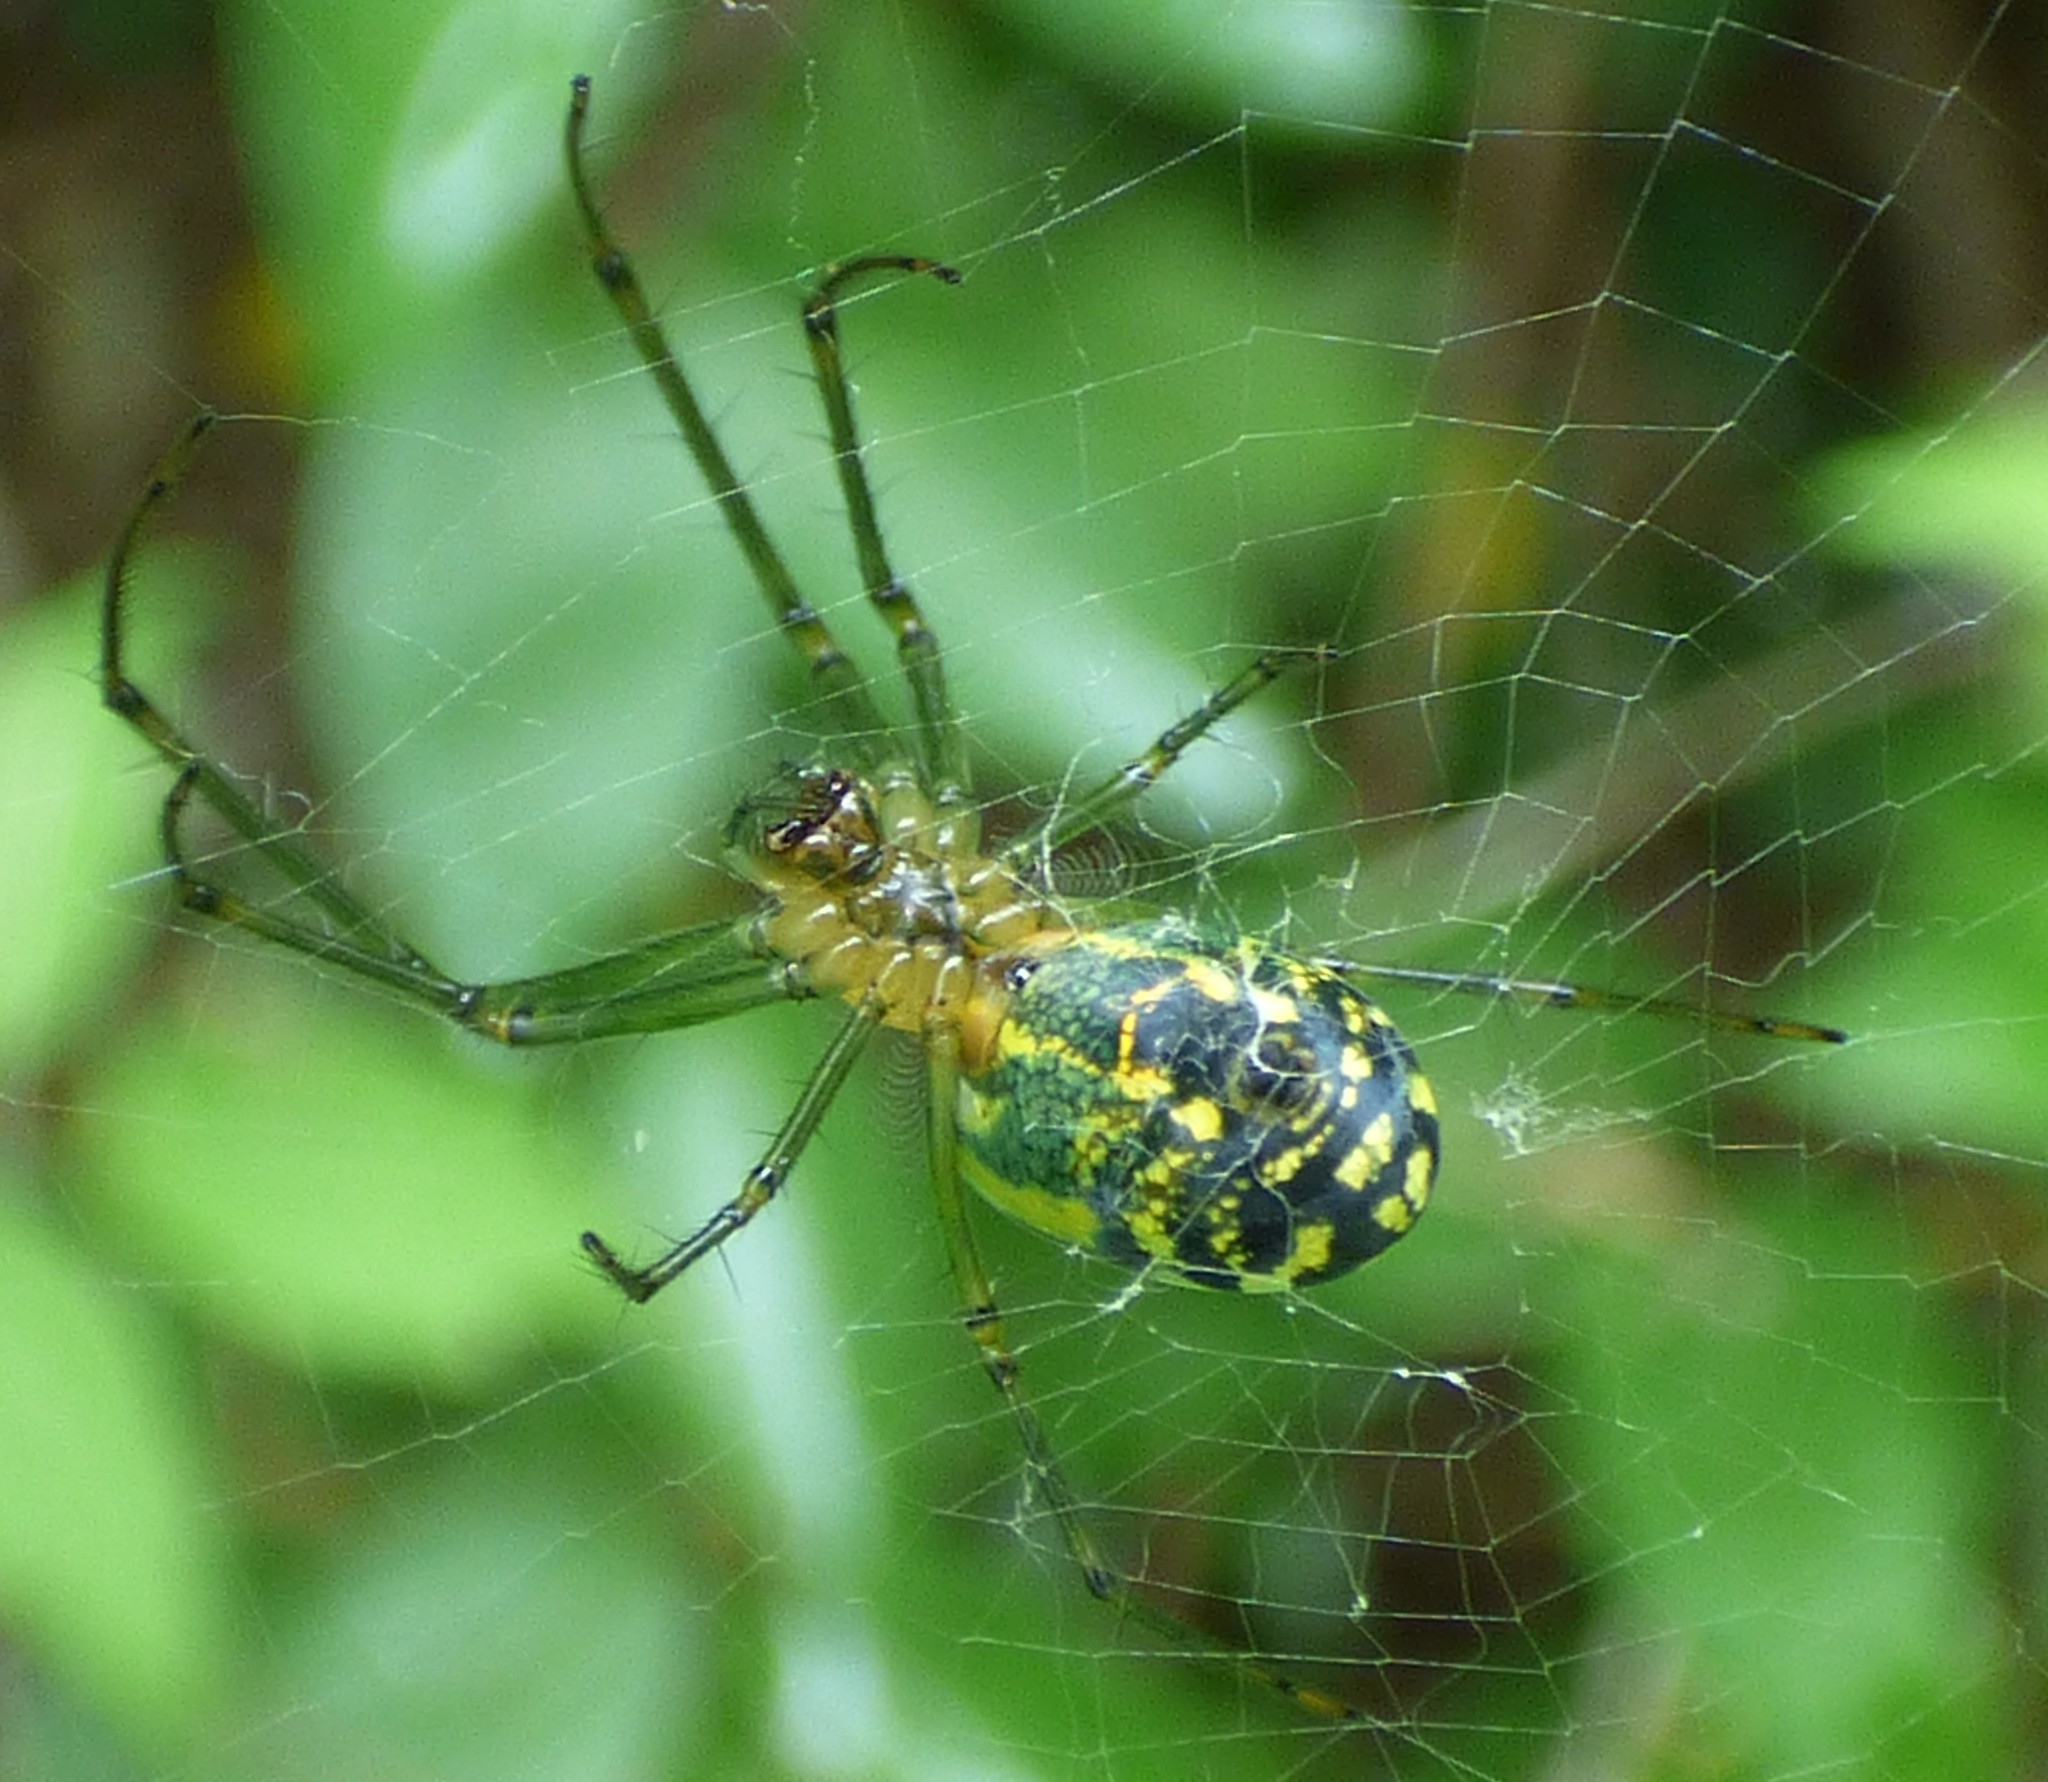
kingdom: Animalia
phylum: Arthropoda
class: Arachnida
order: Araneae
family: Tetragnathidae
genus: Leucauge
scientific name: Leucauge venusta
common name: Longjawed orb weavers
